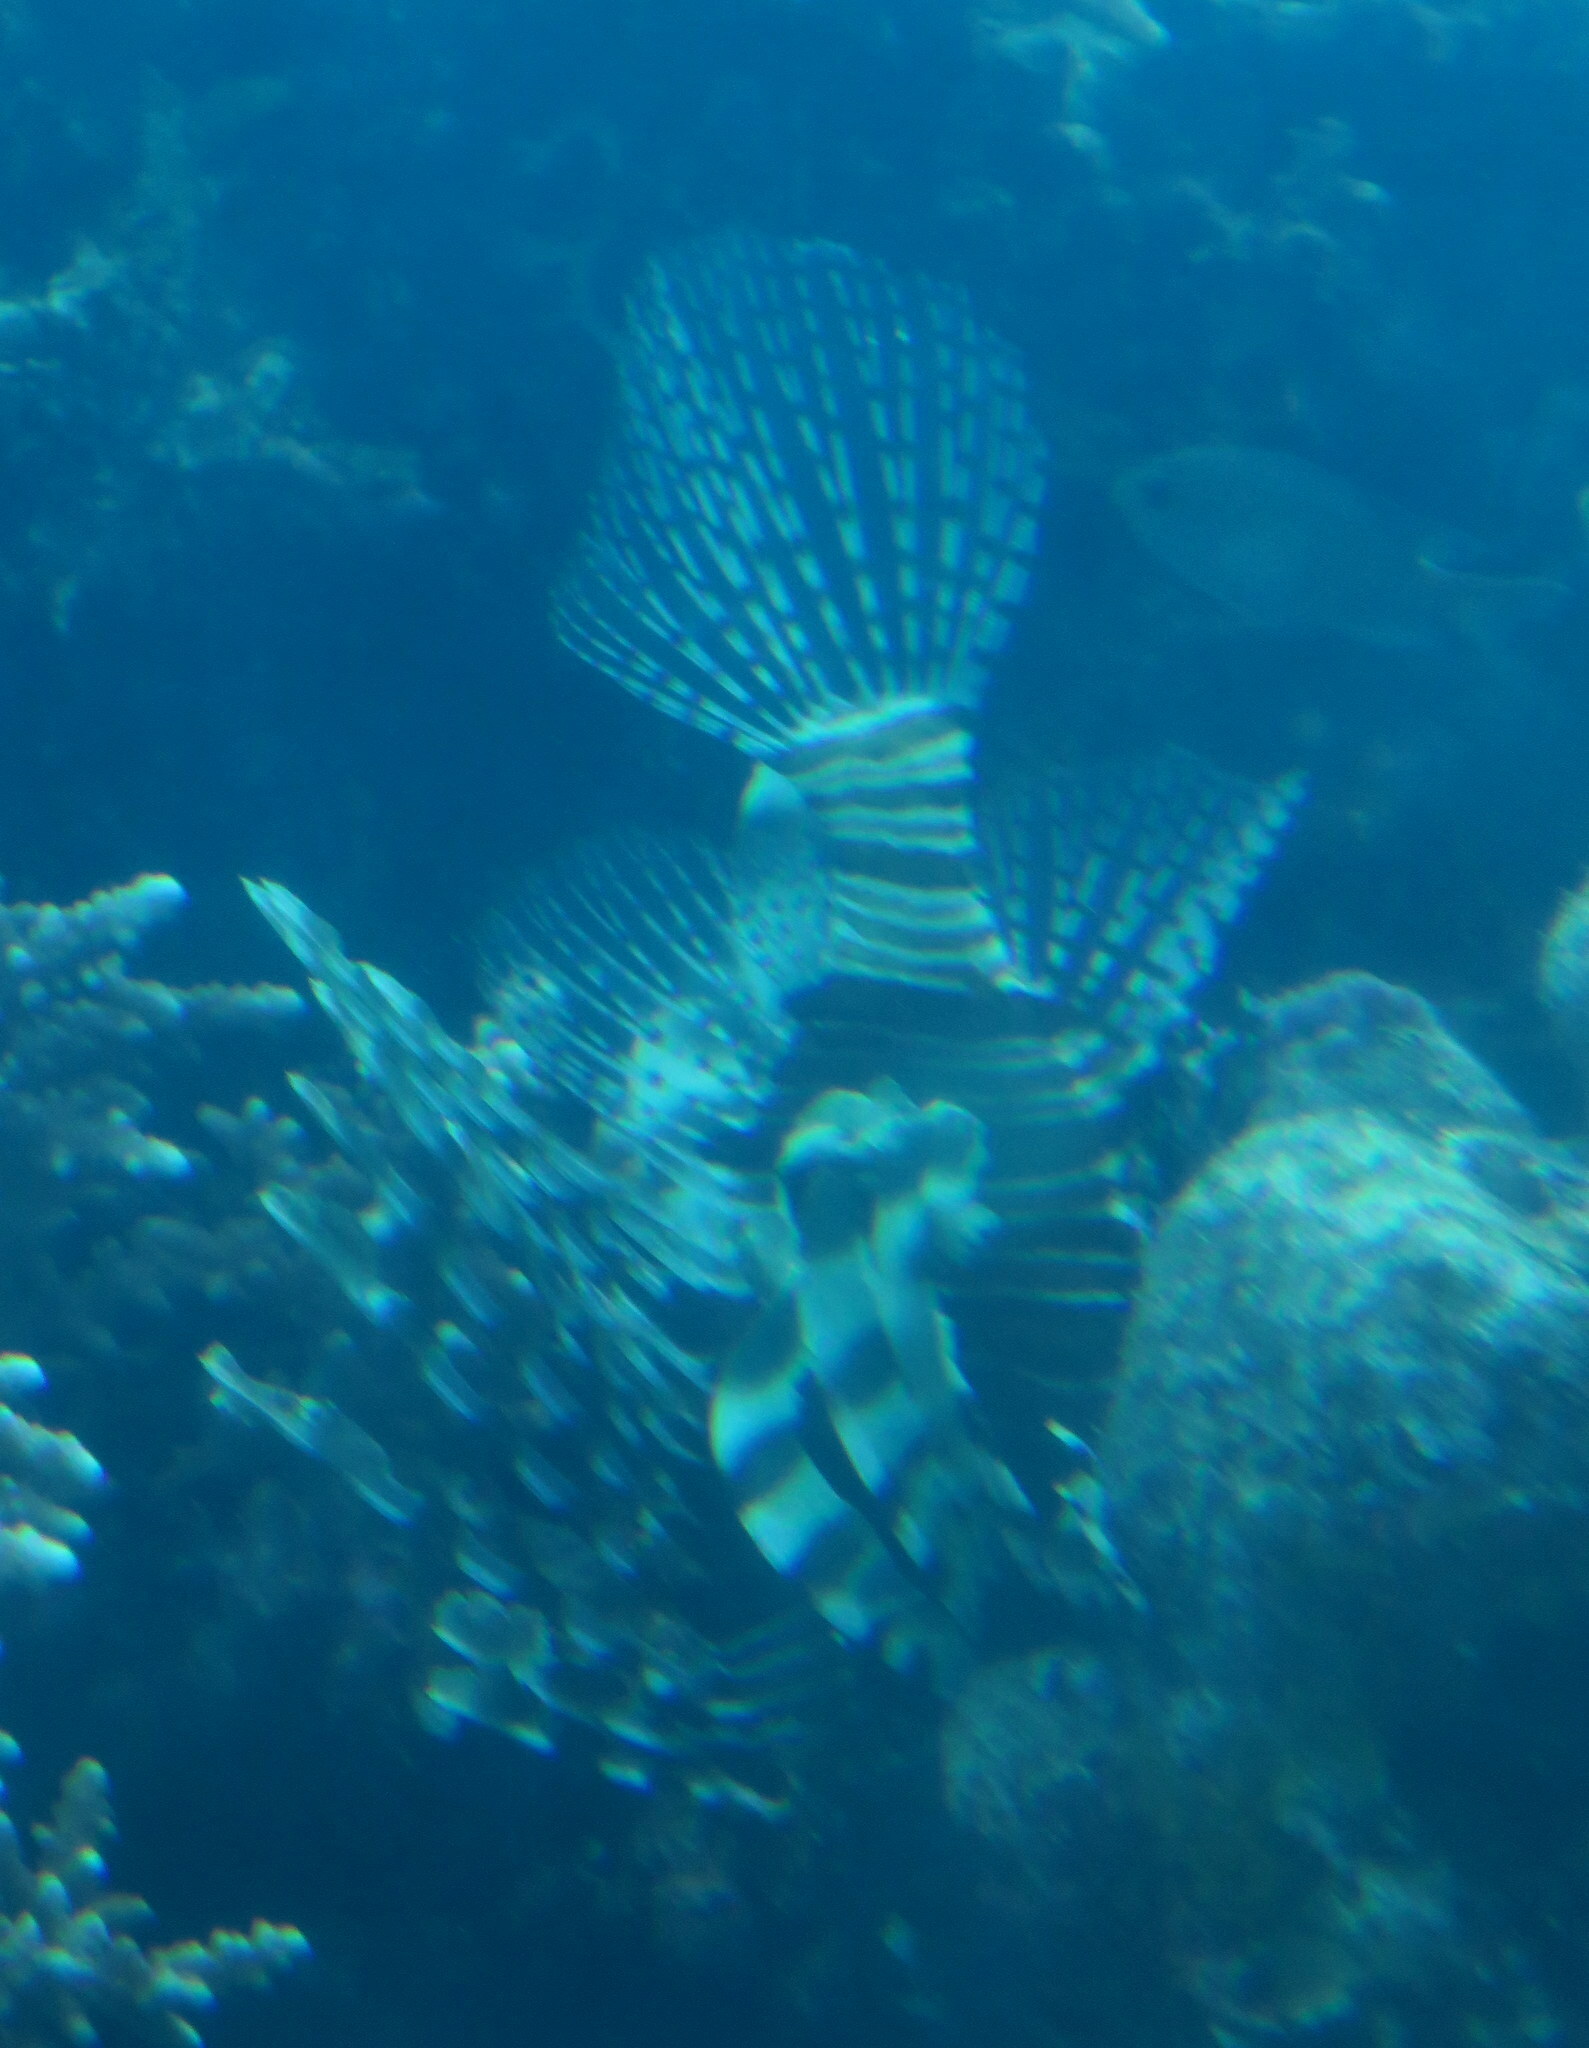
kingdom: Animalia
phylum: Chordata
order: Scorpaeniformes
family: Scorpaenidae
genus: Pterois
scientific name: Pterois miles
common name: Devil firefish
